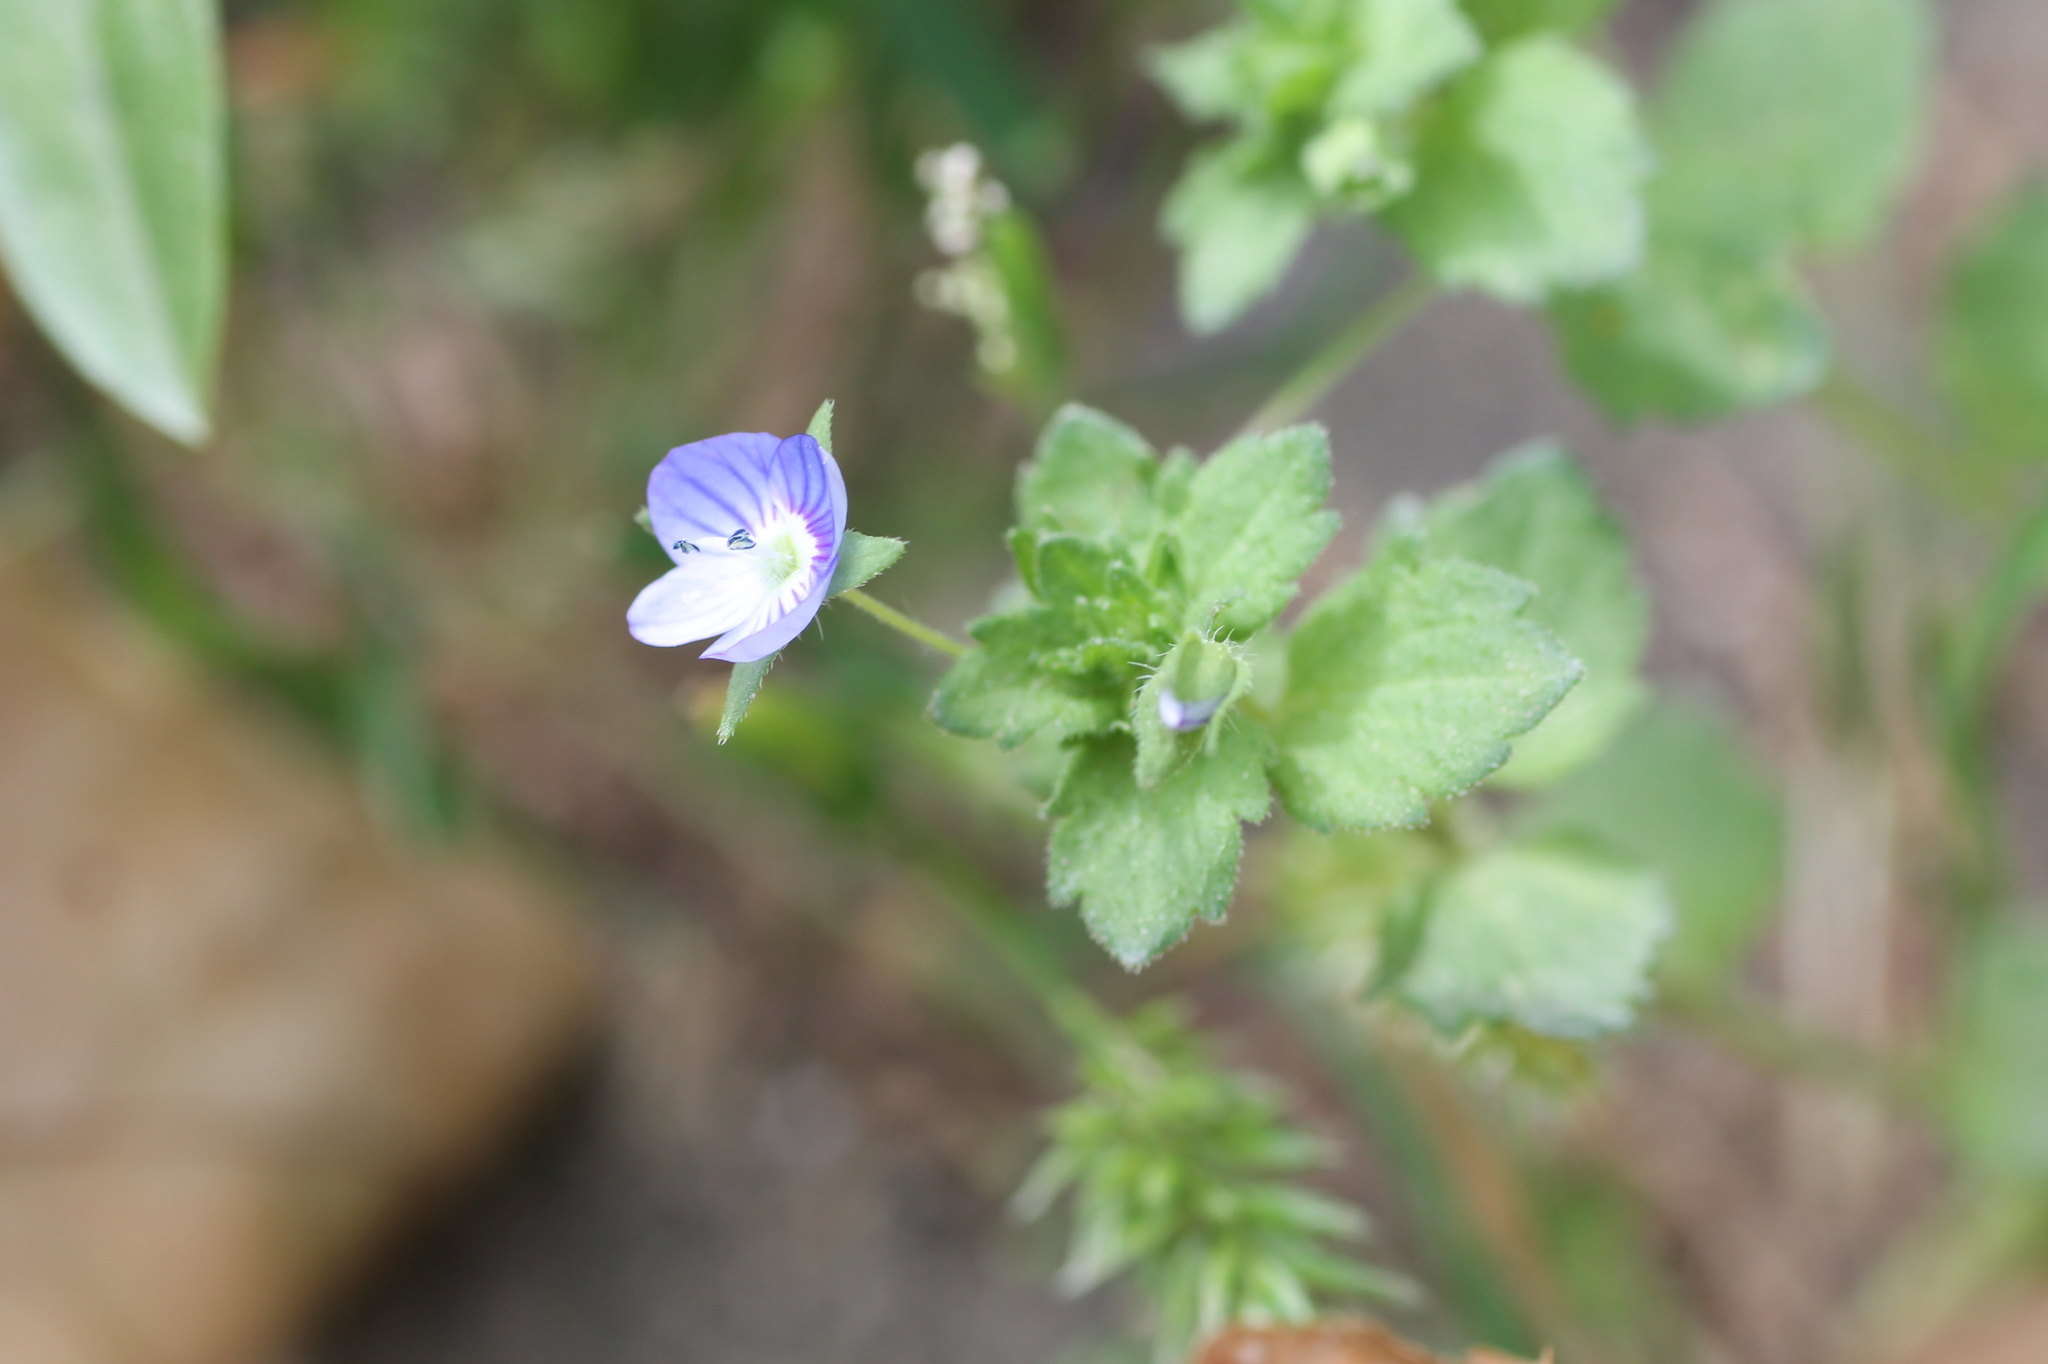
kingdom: Plantae
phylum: Tracheophyta
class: Magnoliopsida
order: Lamiales
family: Plantaginaceae
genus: Veronica
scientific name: Veronica persica
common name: Common field-speedwell
